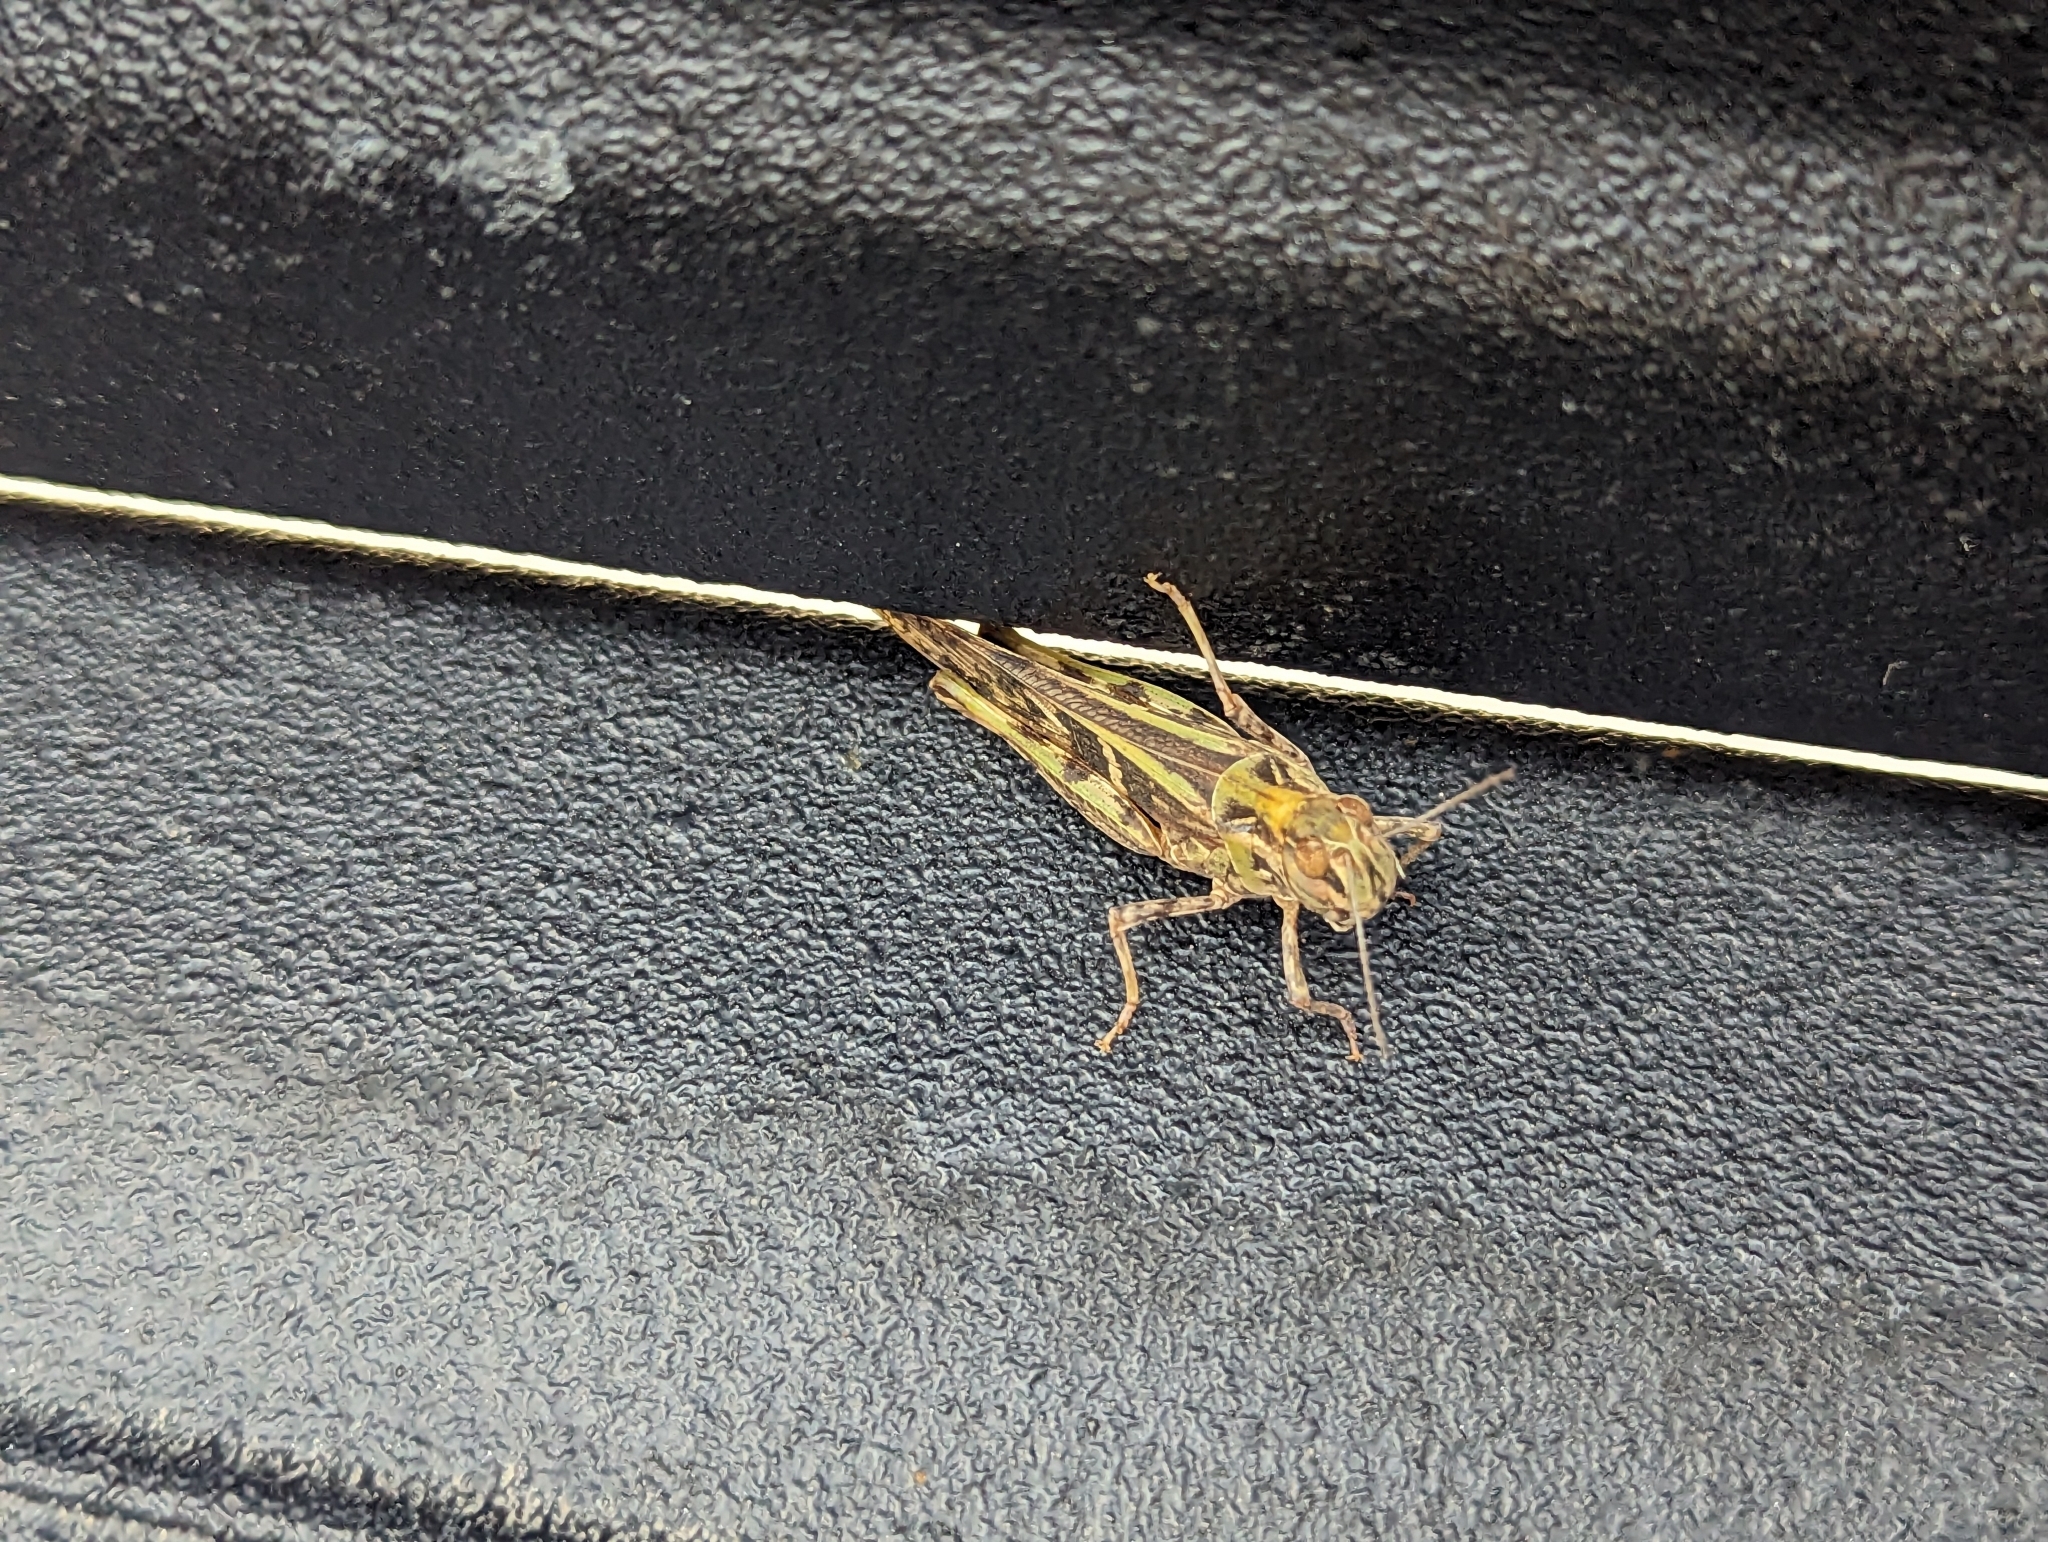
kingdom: Animalia
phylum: Arthropoda
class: Insecta
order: Orthoptera
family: Acrididae
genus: Oedaleus
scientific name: Oedaleus senegalensis
